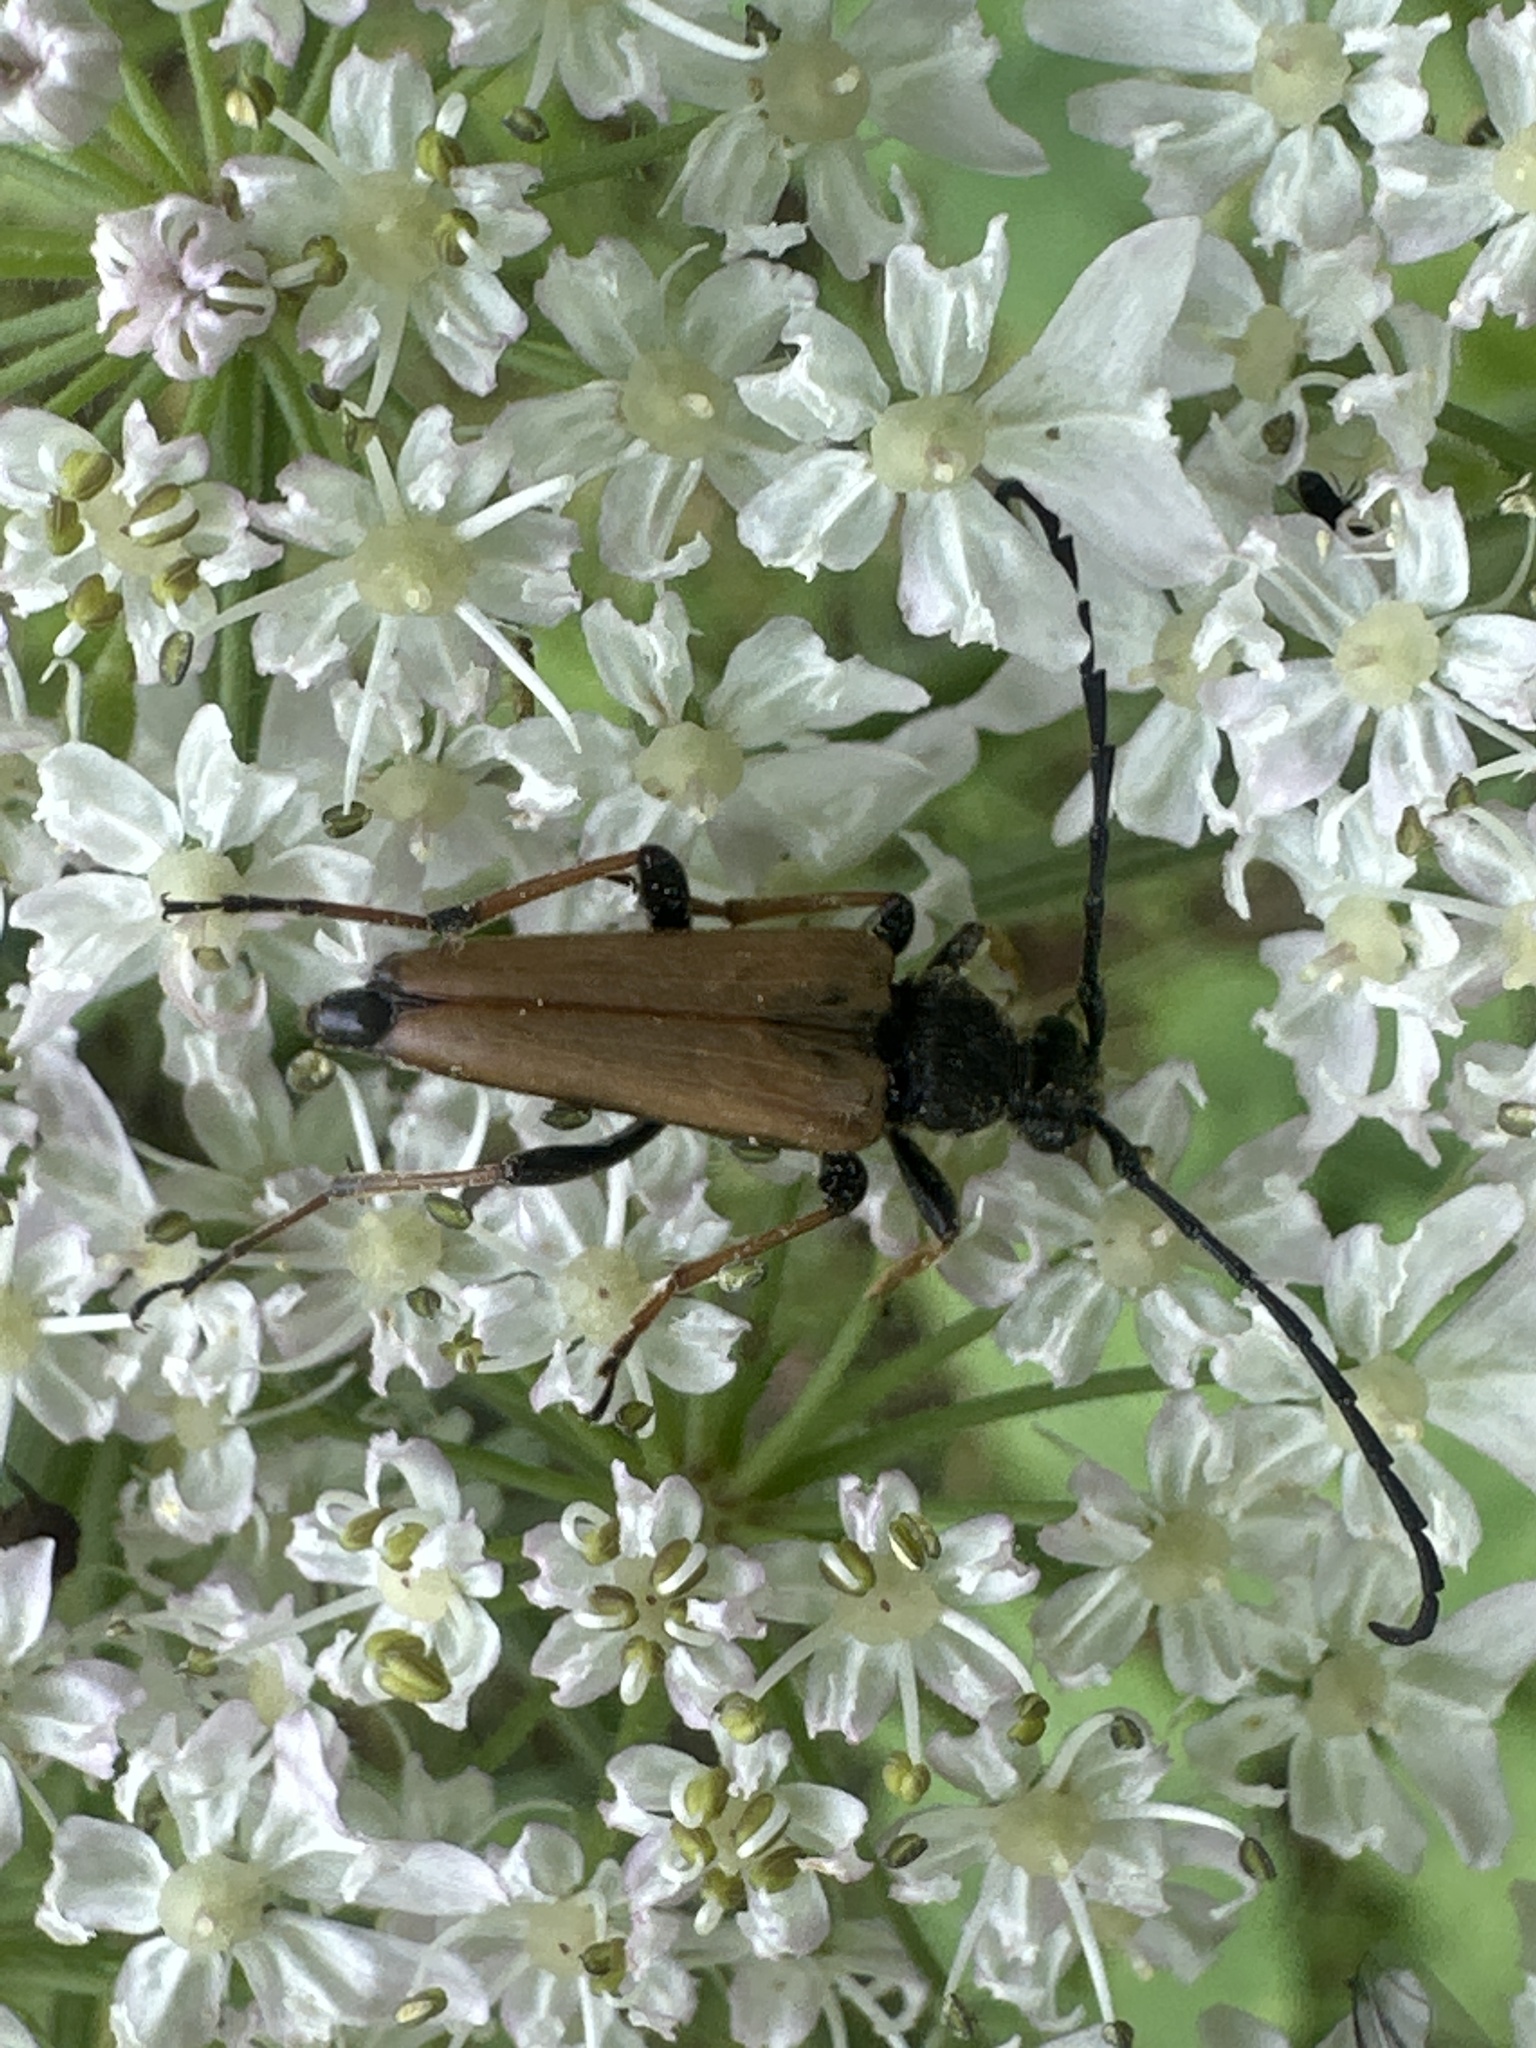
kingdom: Animalia
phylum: Arthropoda
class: Insecta
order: Coleoptera
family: Cerambycidae
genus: Stictoleptura
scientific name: Stictoleptura rubra
